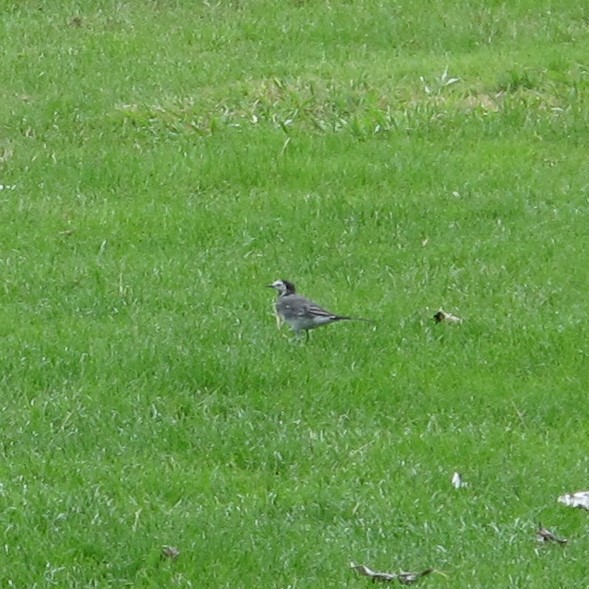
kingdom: Animalia
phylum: Chordata
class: Aves
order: Passeriformes
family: Motacillidae
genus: Motacilla
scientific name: Motacilla alba
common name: White wagtail
